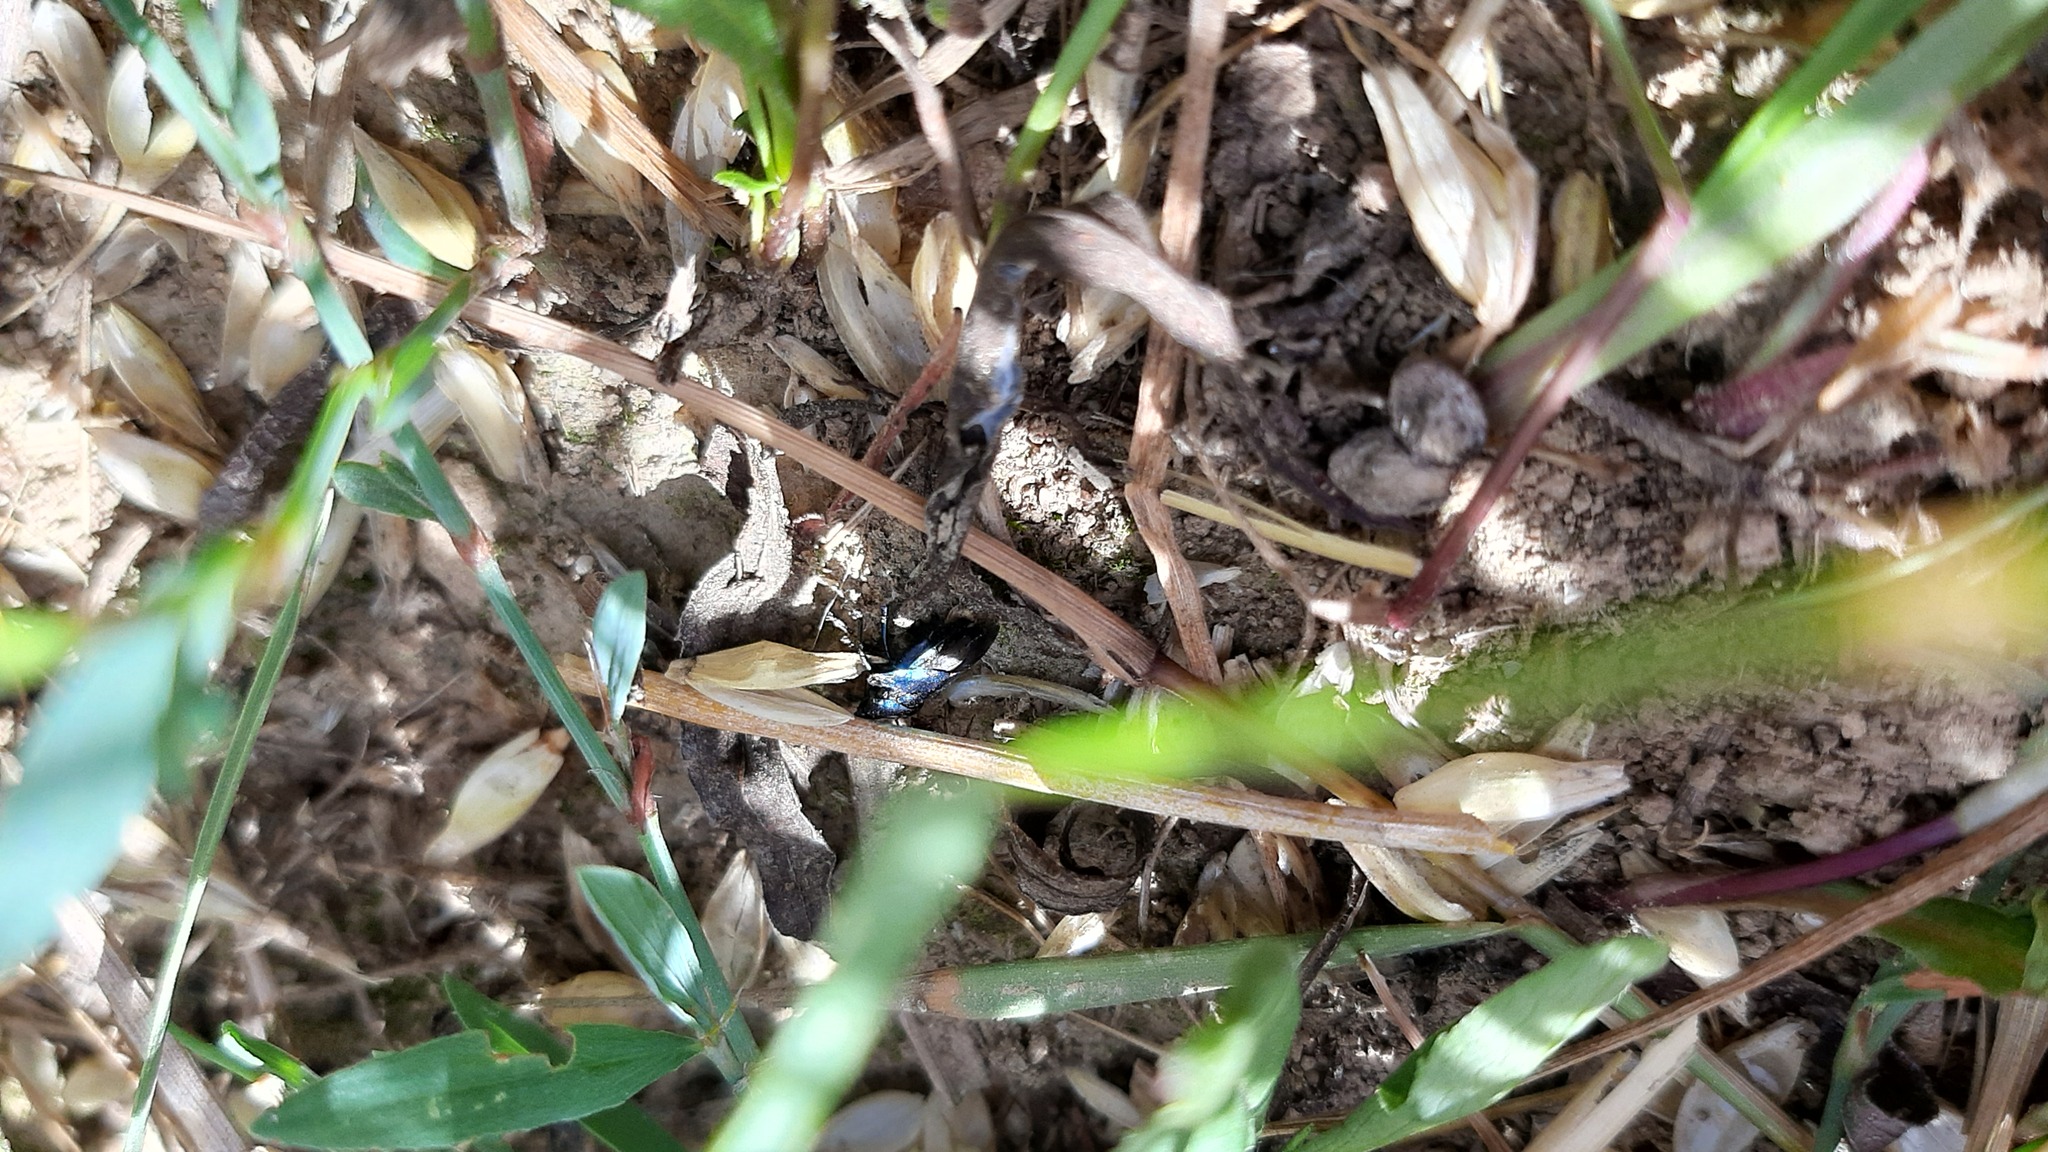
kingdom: Animalia
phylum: Arthropoda
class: Insecta
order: Hemiptera
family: Pentatomidae
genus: Zicrona
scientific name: Zicrona caerulea
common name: Blue shieldbug
